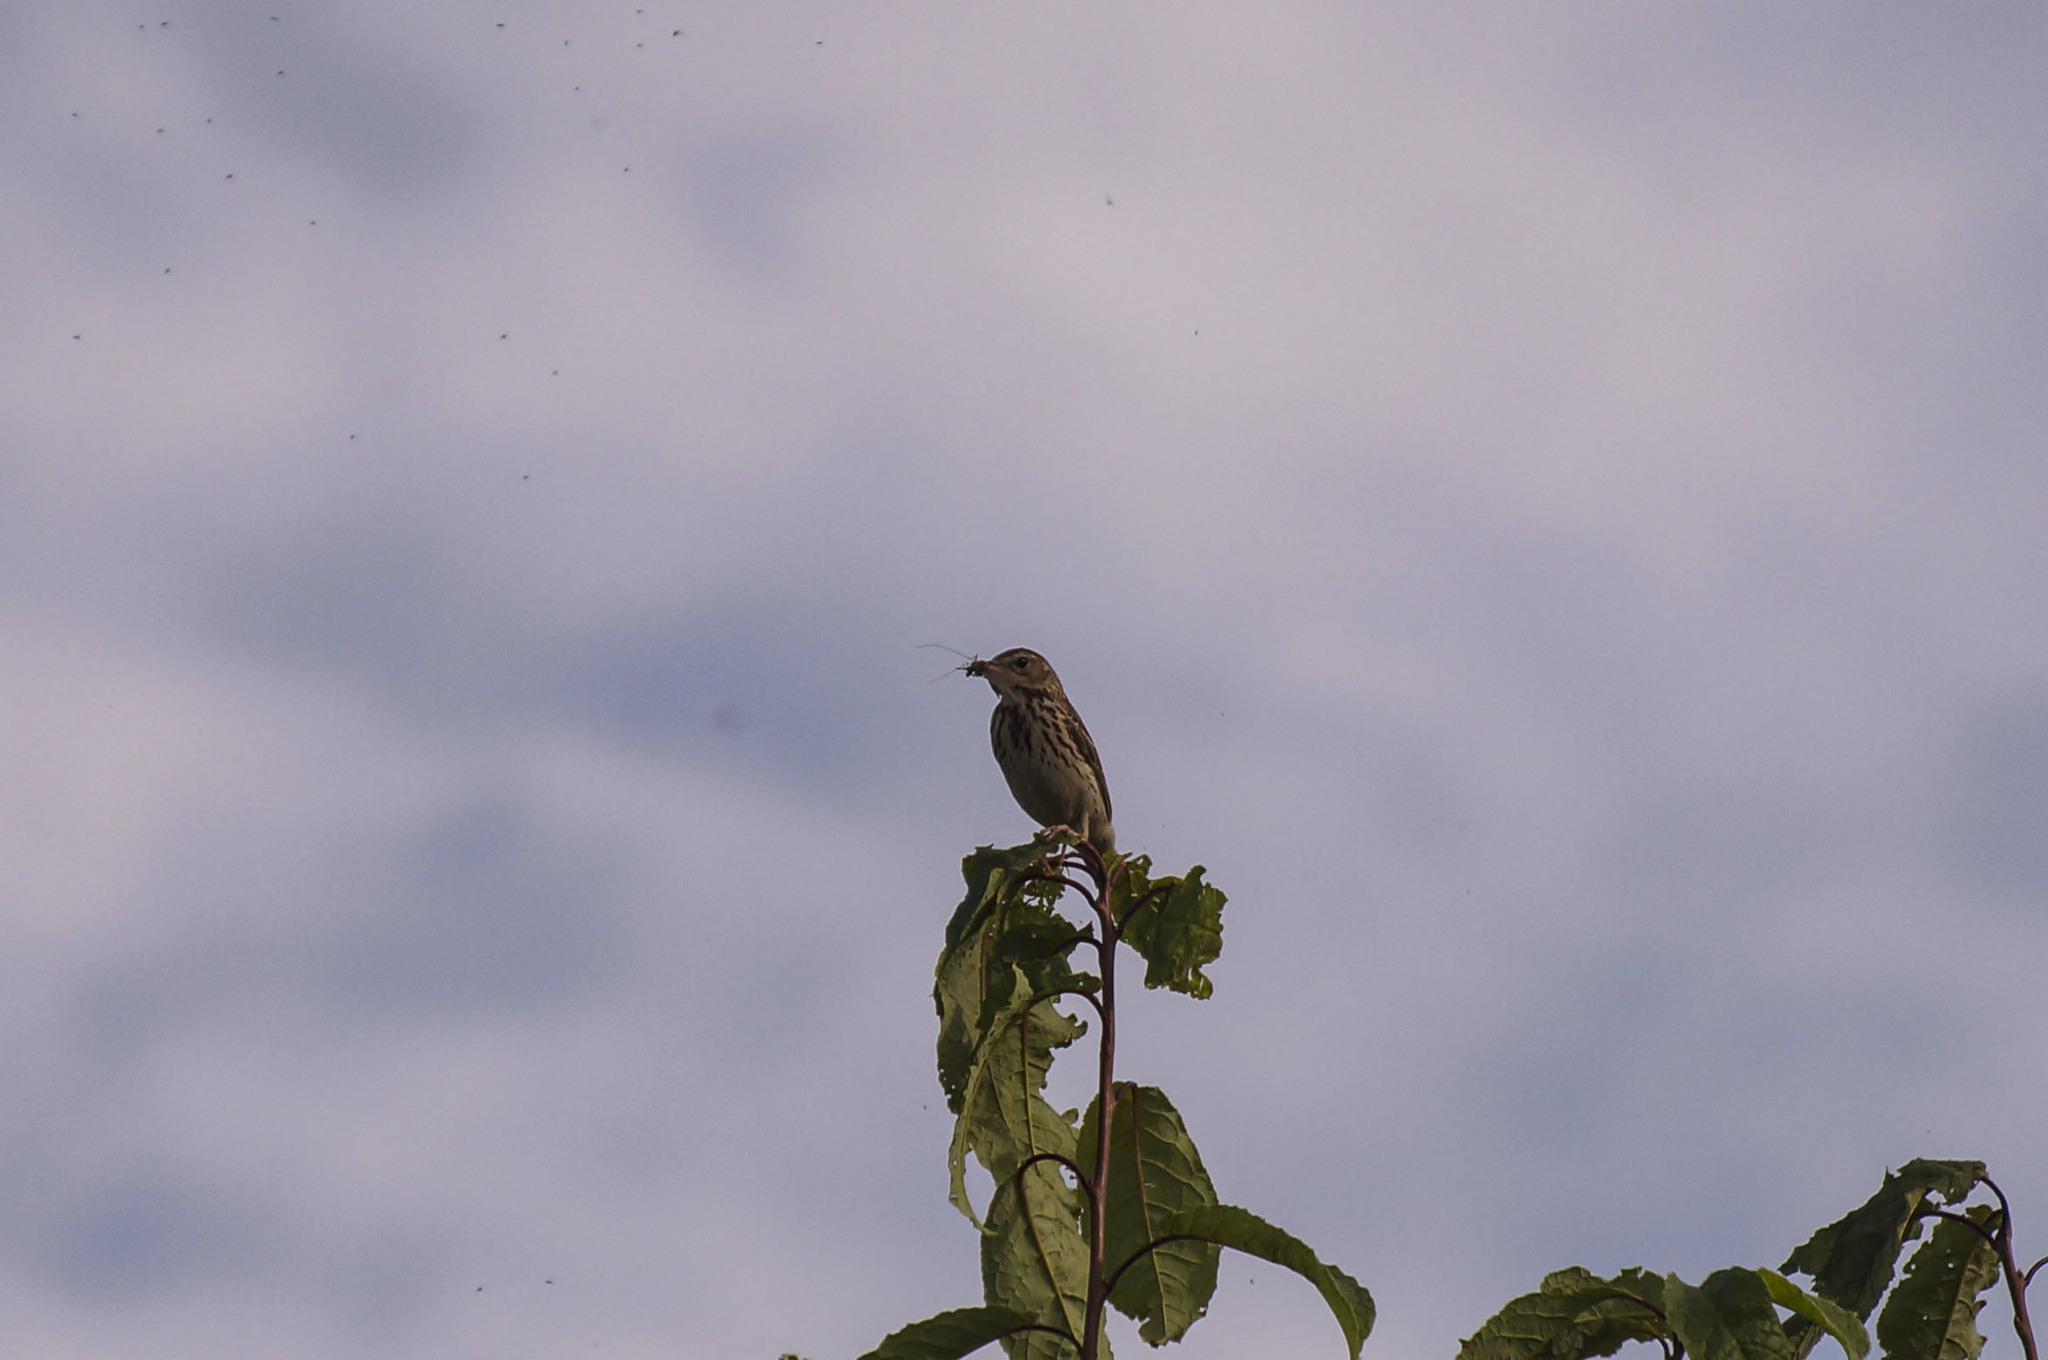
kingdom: Animalia
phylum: Chordata
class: Aves
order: Passeriformes
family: Motacillidae
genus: Anthus
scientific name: Anthus trivialis
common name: Tree pipit
